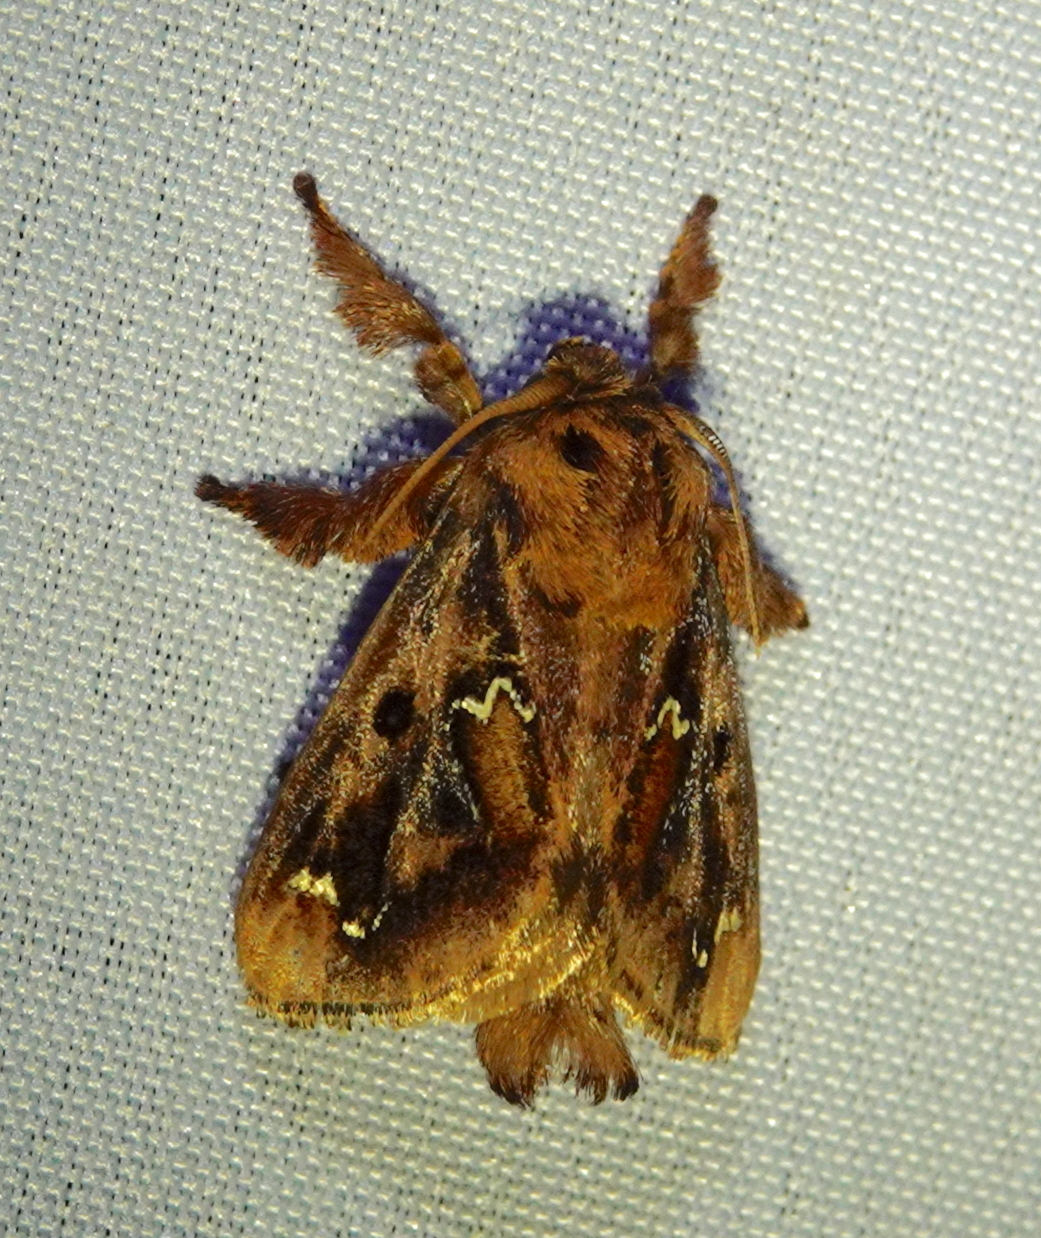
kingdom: Animalia
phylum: Arthropoda
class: Insecta
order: Lepidoptera
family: Limacodidae
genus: Euclea
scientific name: Euclea buscki
